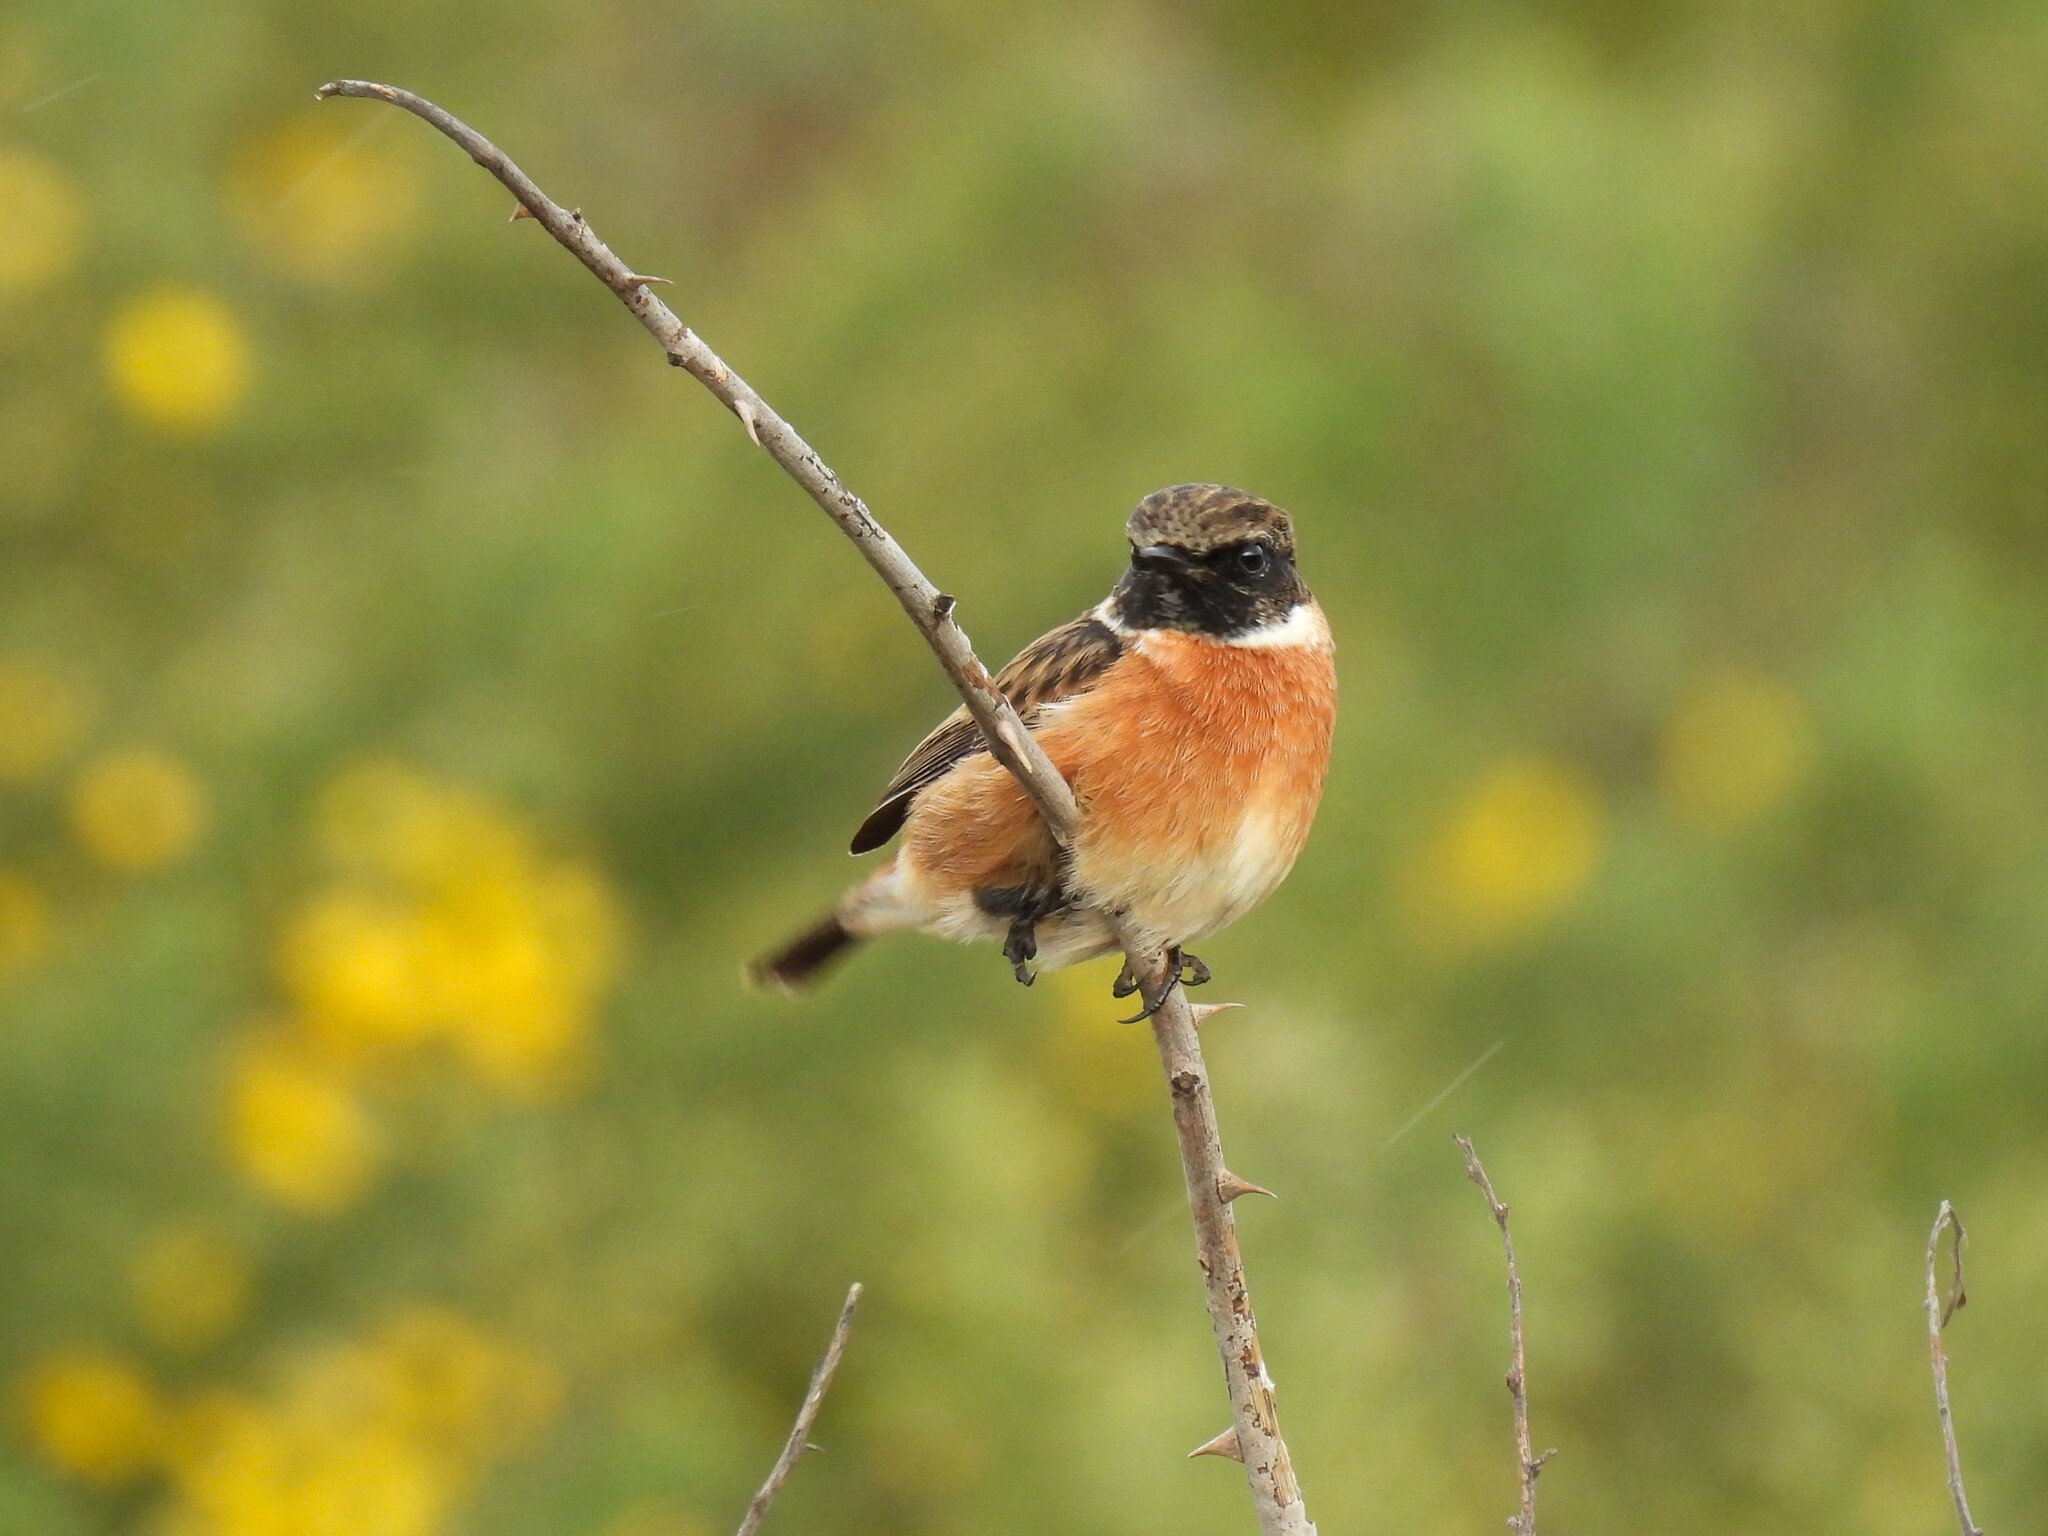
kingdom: Animalia
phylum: Chordata
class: Aves
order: Passeriformes
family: Muscicapidae
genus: Saxicola
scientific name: Saxicola rubicola
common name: European stonechat
